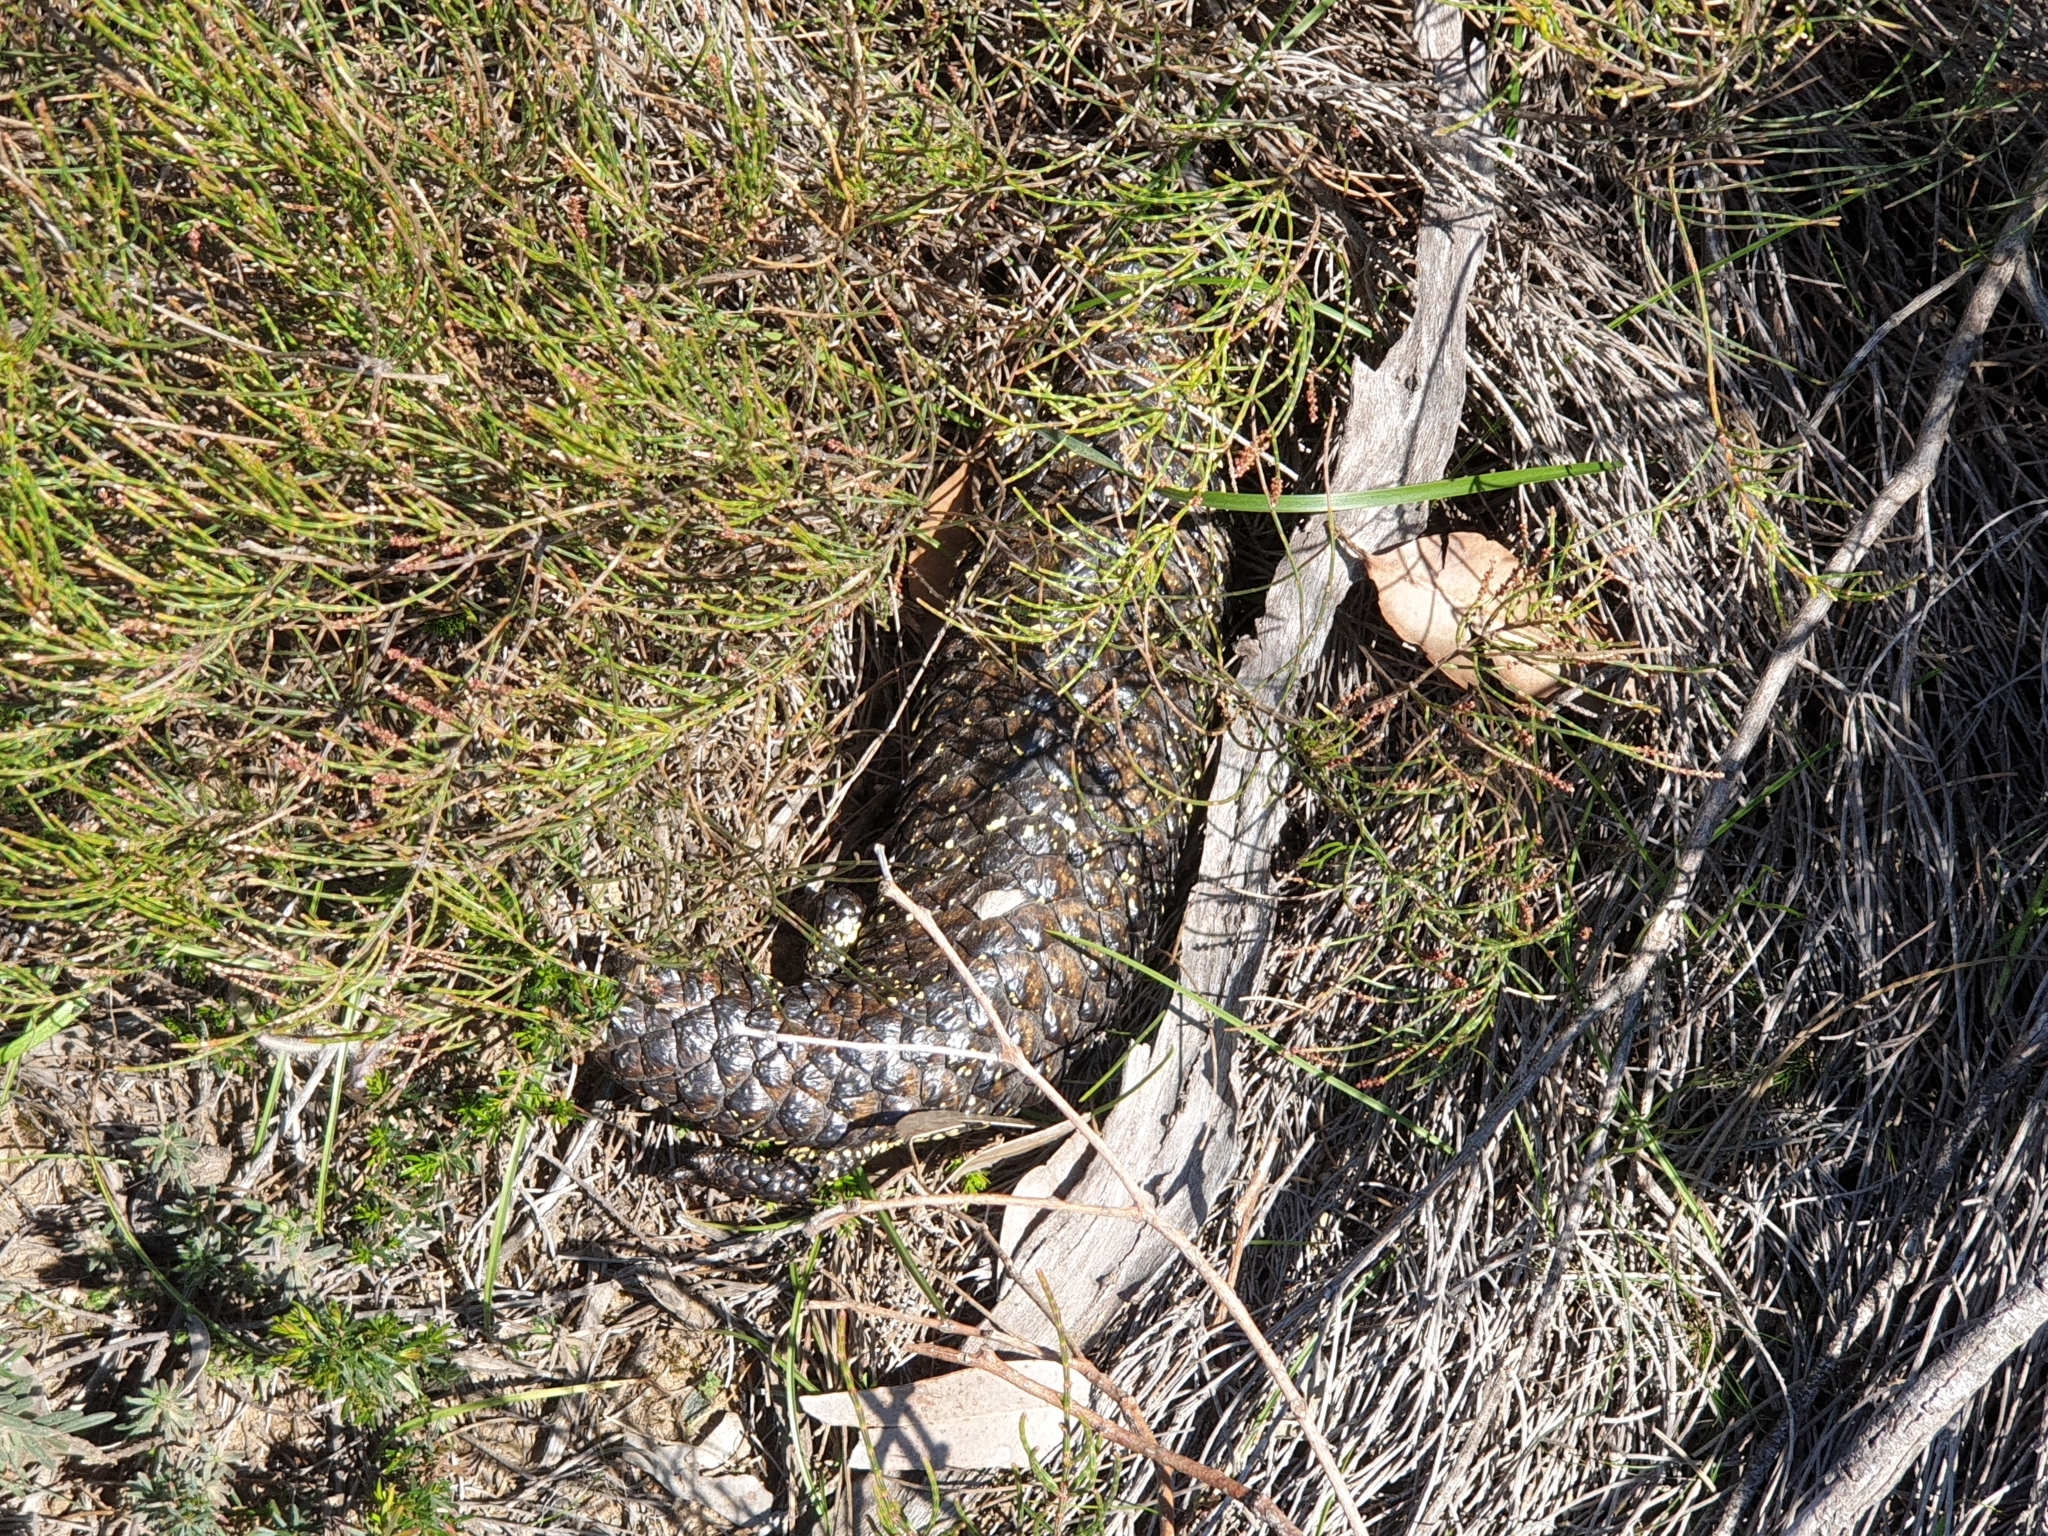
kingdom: Animalia
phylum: Chordata
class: Squamata
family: Scincidae
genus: Tiliqua
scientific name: Tiliqua rugosa
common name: Pinecone lizard
